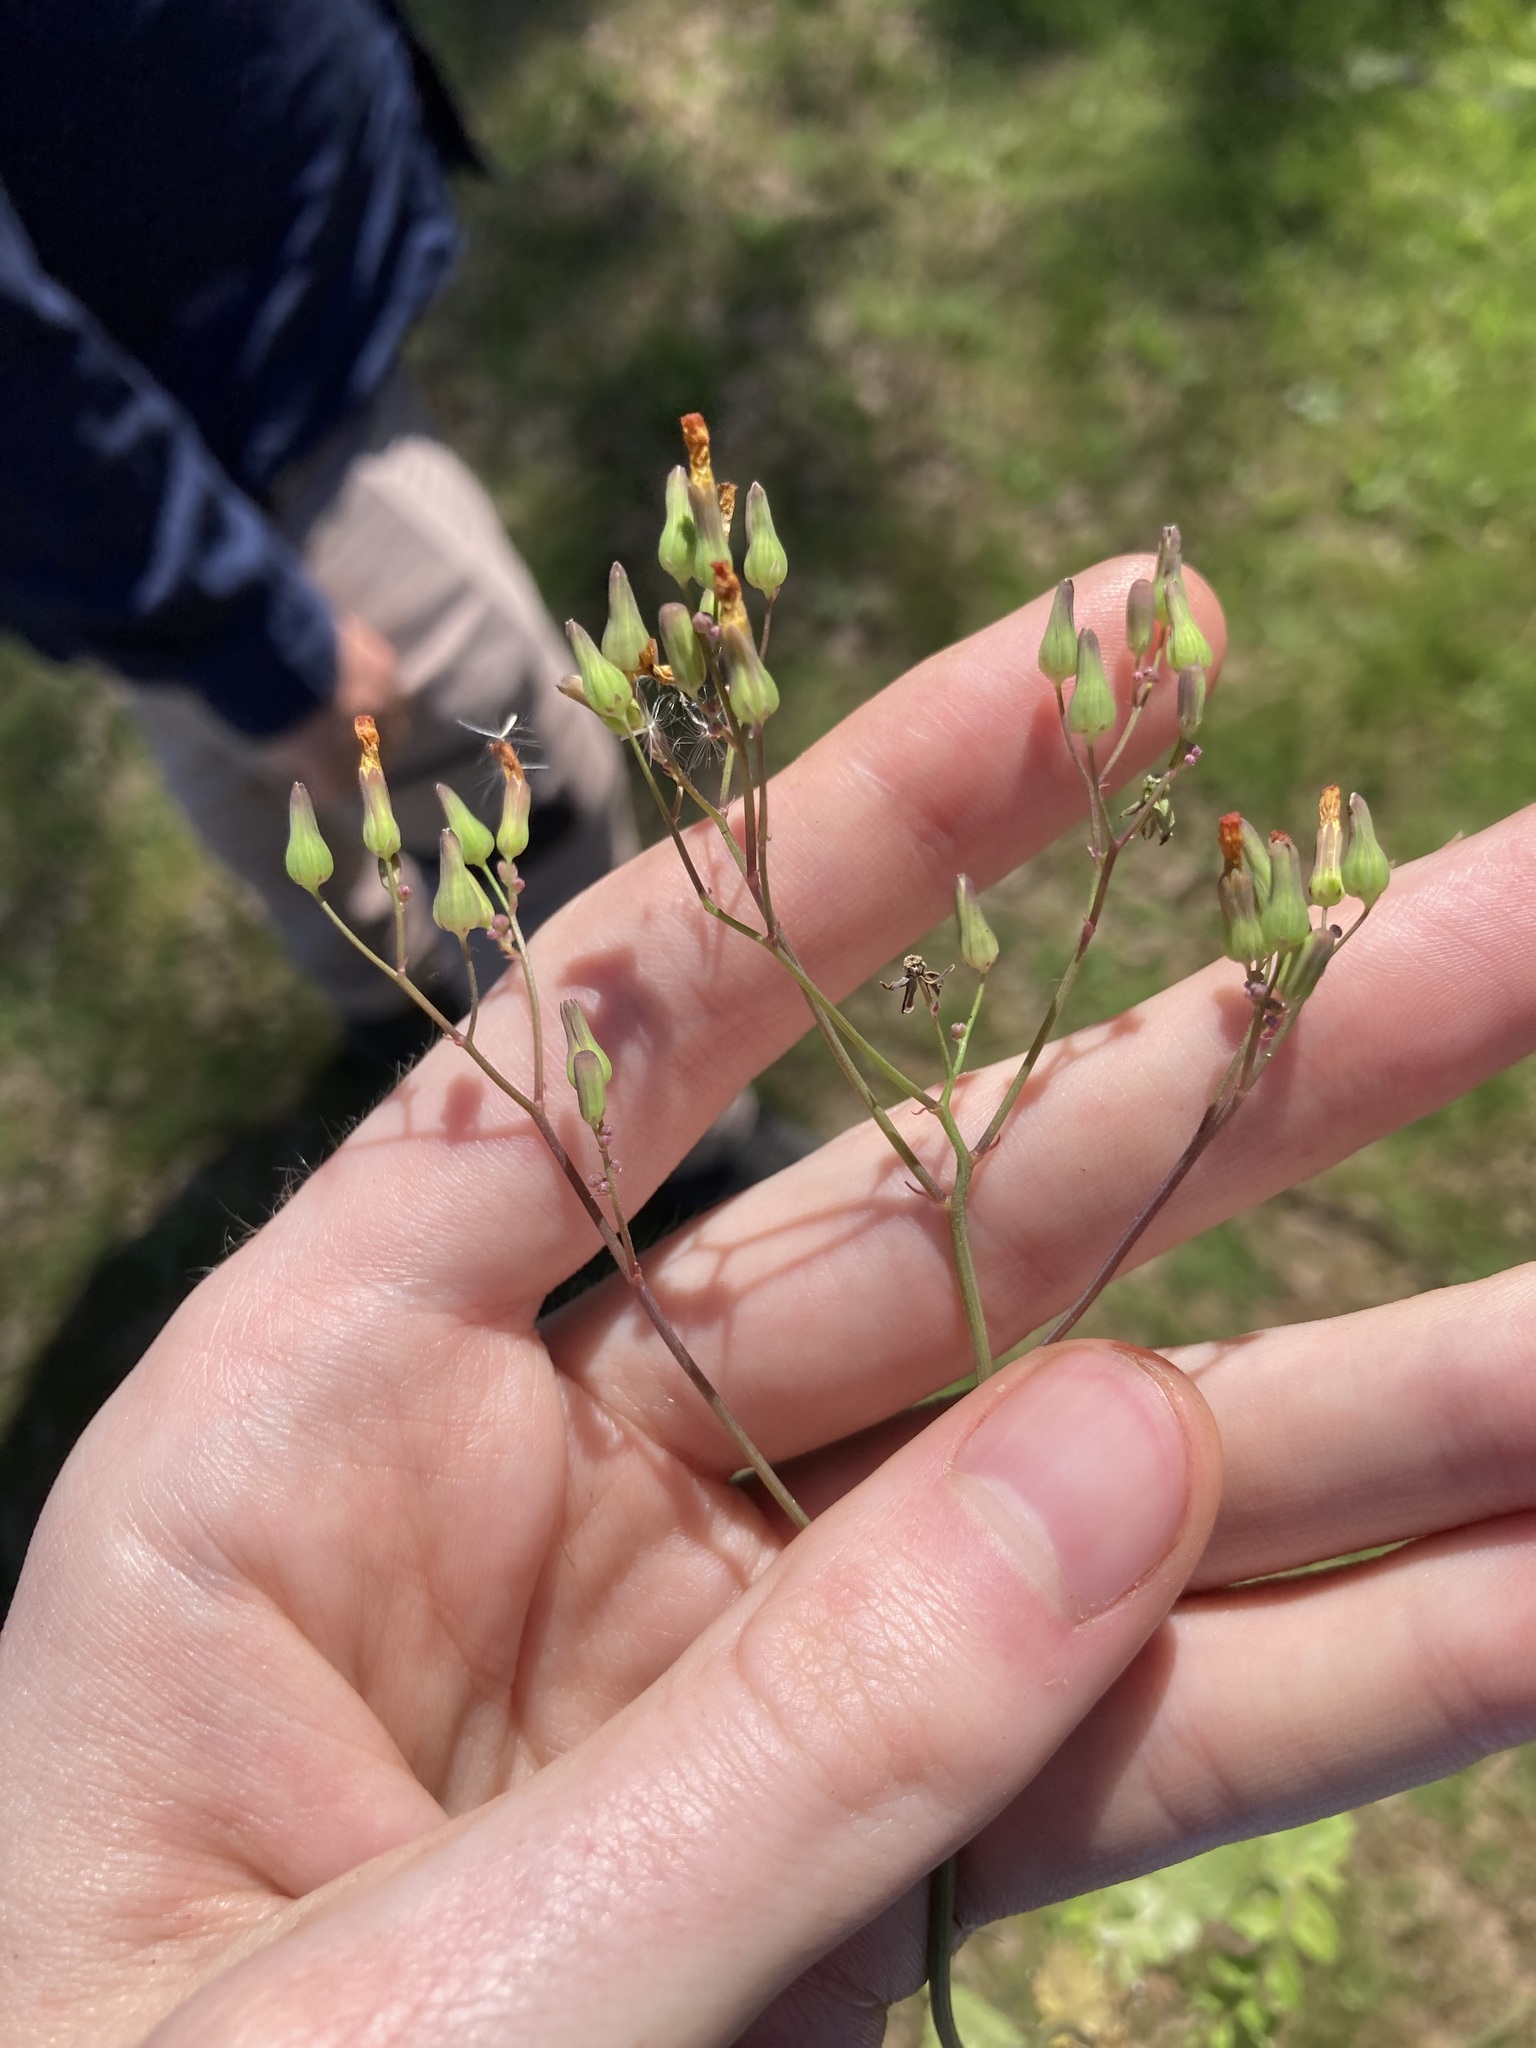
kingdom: Plantae
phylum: Tracheophyta
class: Magnoliopsida
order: Asterales
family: Asteraceae
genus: Youngia
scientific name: Youngia japonica
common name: Oriental false hawksbeard
